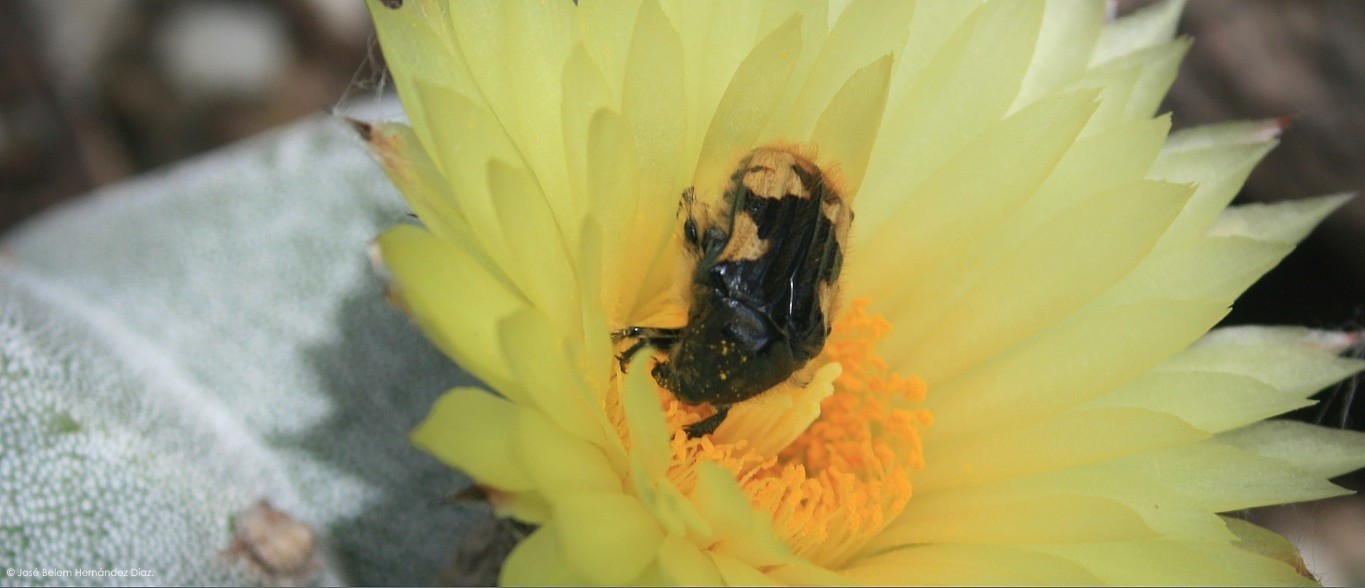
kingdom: Animalia
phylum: Arthropoda
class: Insecta
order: Coleoptera
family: Scarabaeidae
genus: Euphoria
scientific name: Euphoria basalis
